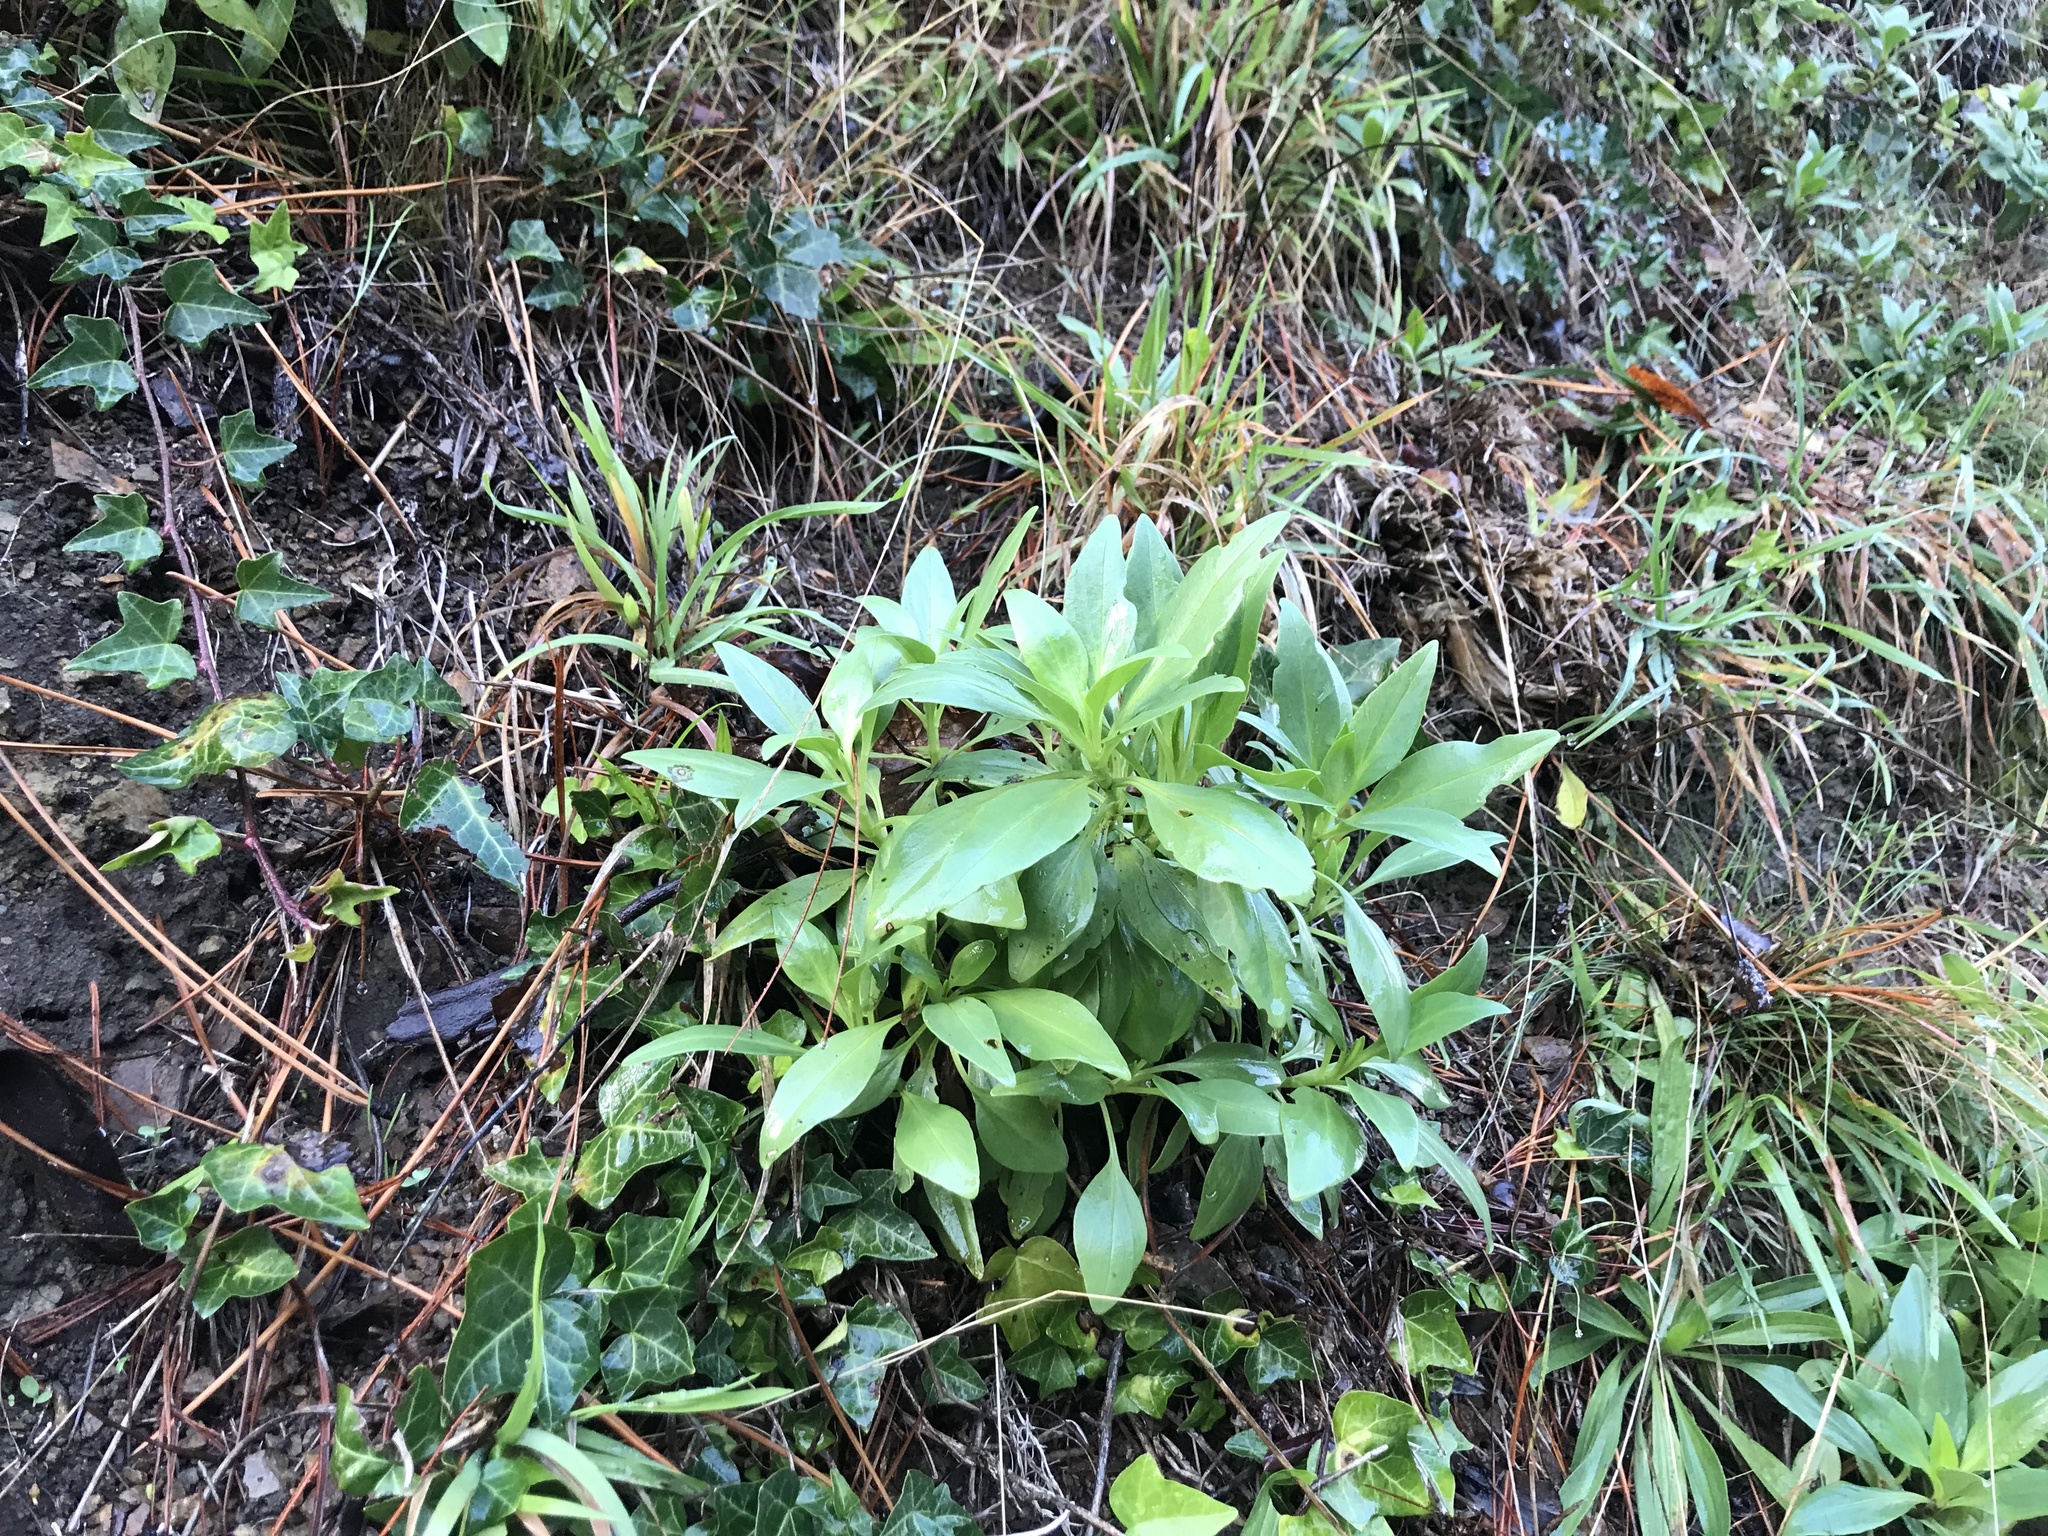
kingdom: Plantae
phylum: Tracheophyta
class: Magnoliopsida
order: Dipsacales
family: Caprifoliaceae
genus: Centranthus
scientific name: Centranthus ruber
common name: Red valerian
